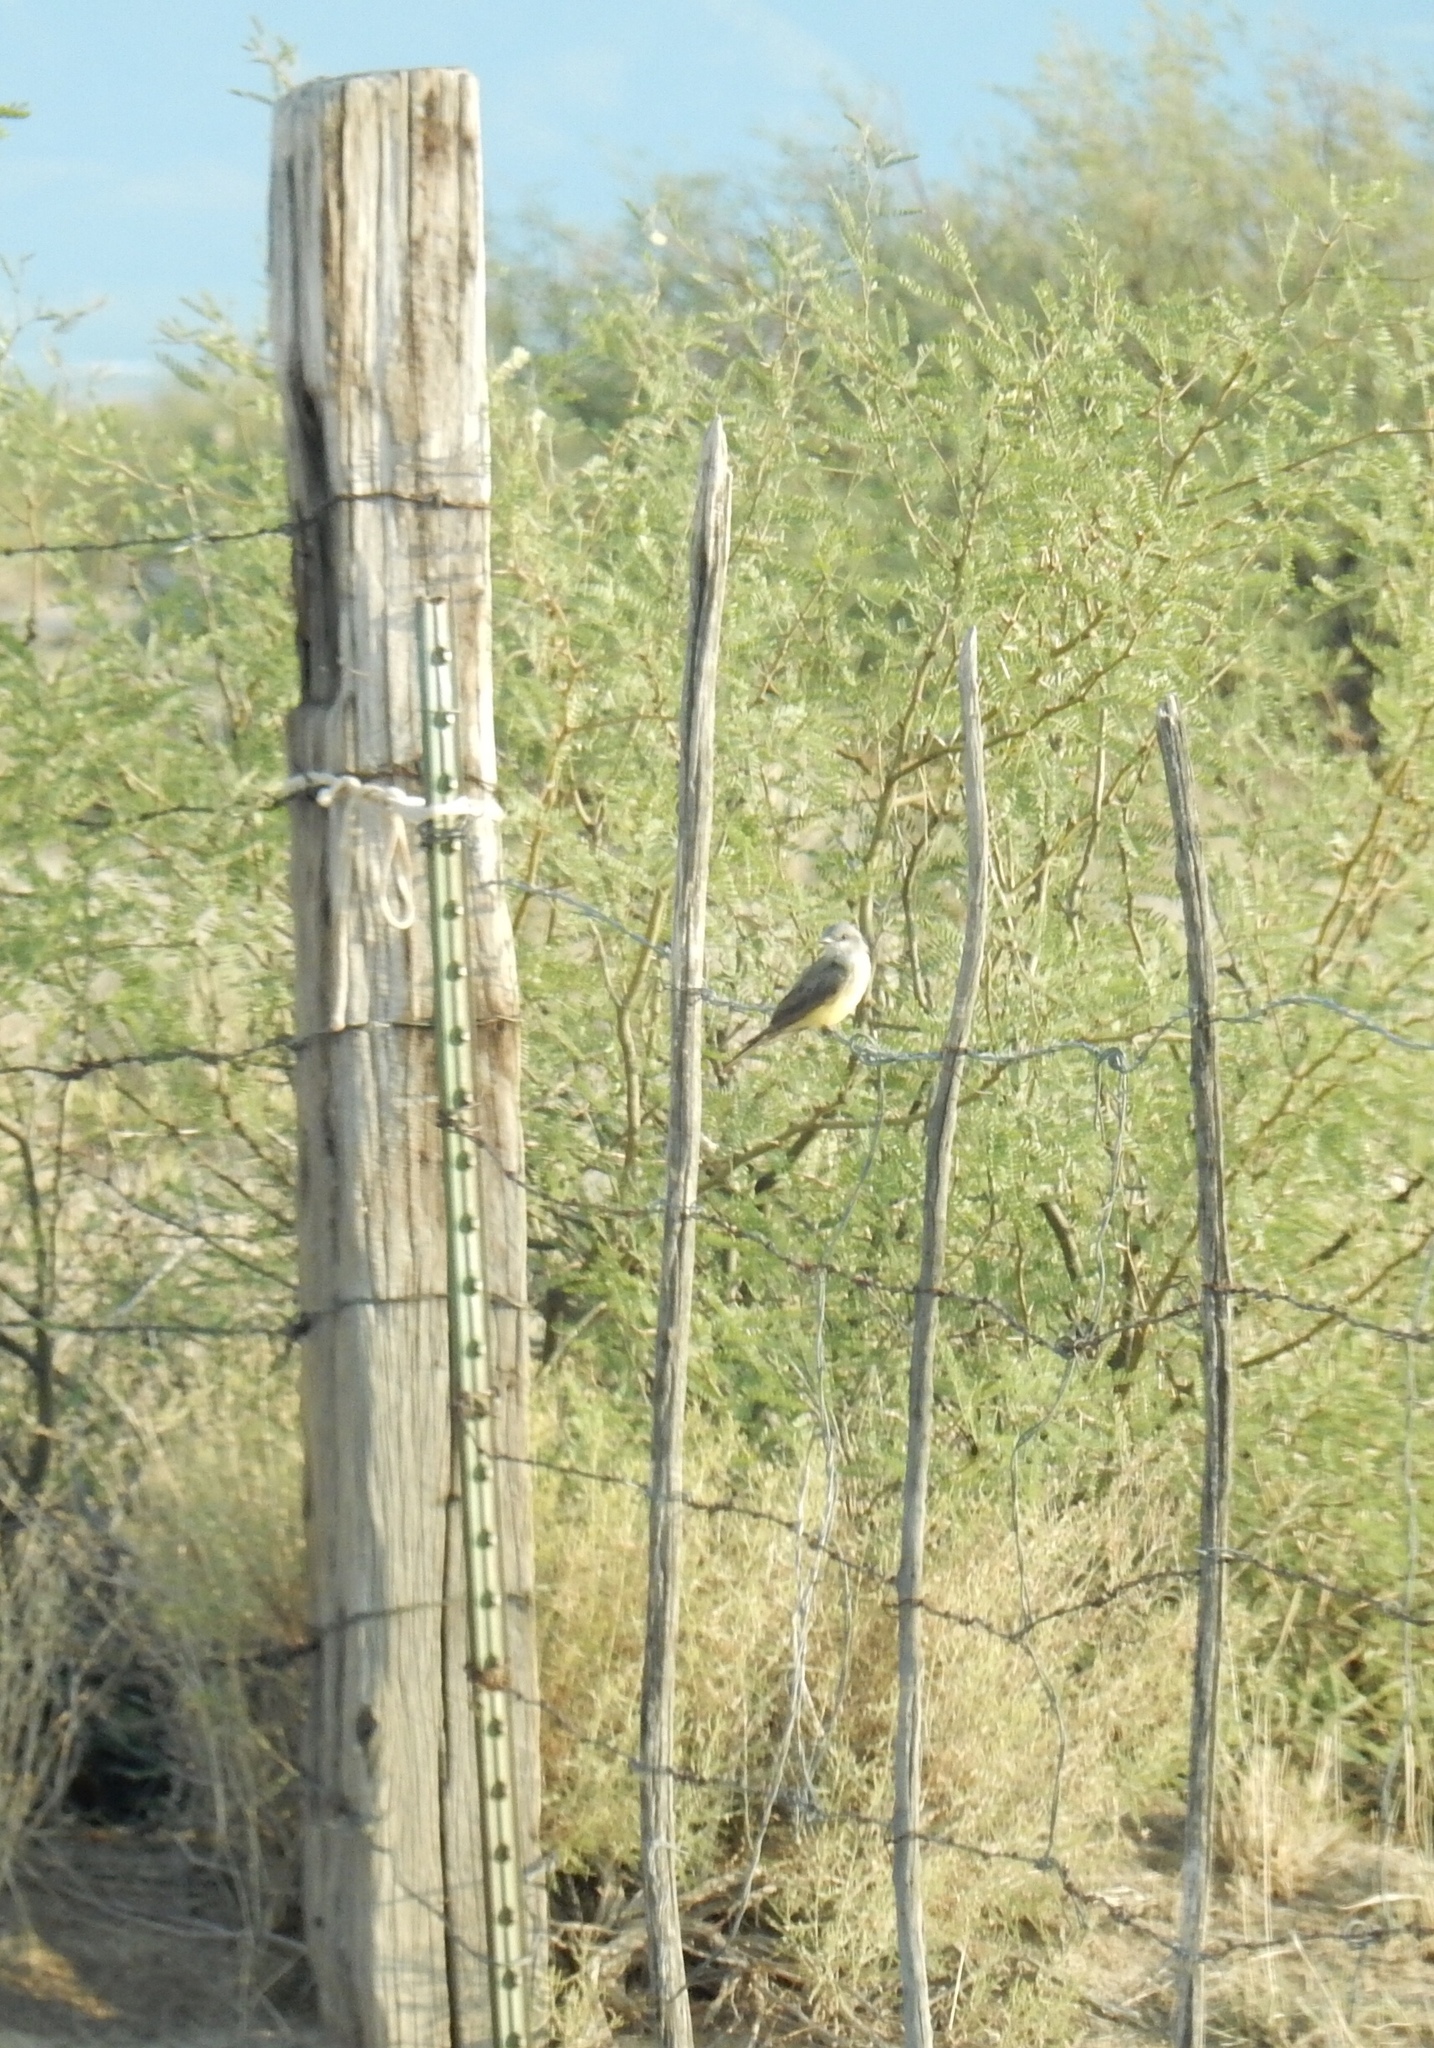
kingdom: Animalia
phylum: Chordata
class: Aves
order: Passeriformes
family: Tyrannidae
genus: Tyrannus
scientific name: Tyrannus verticalis
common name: Western kingbird
